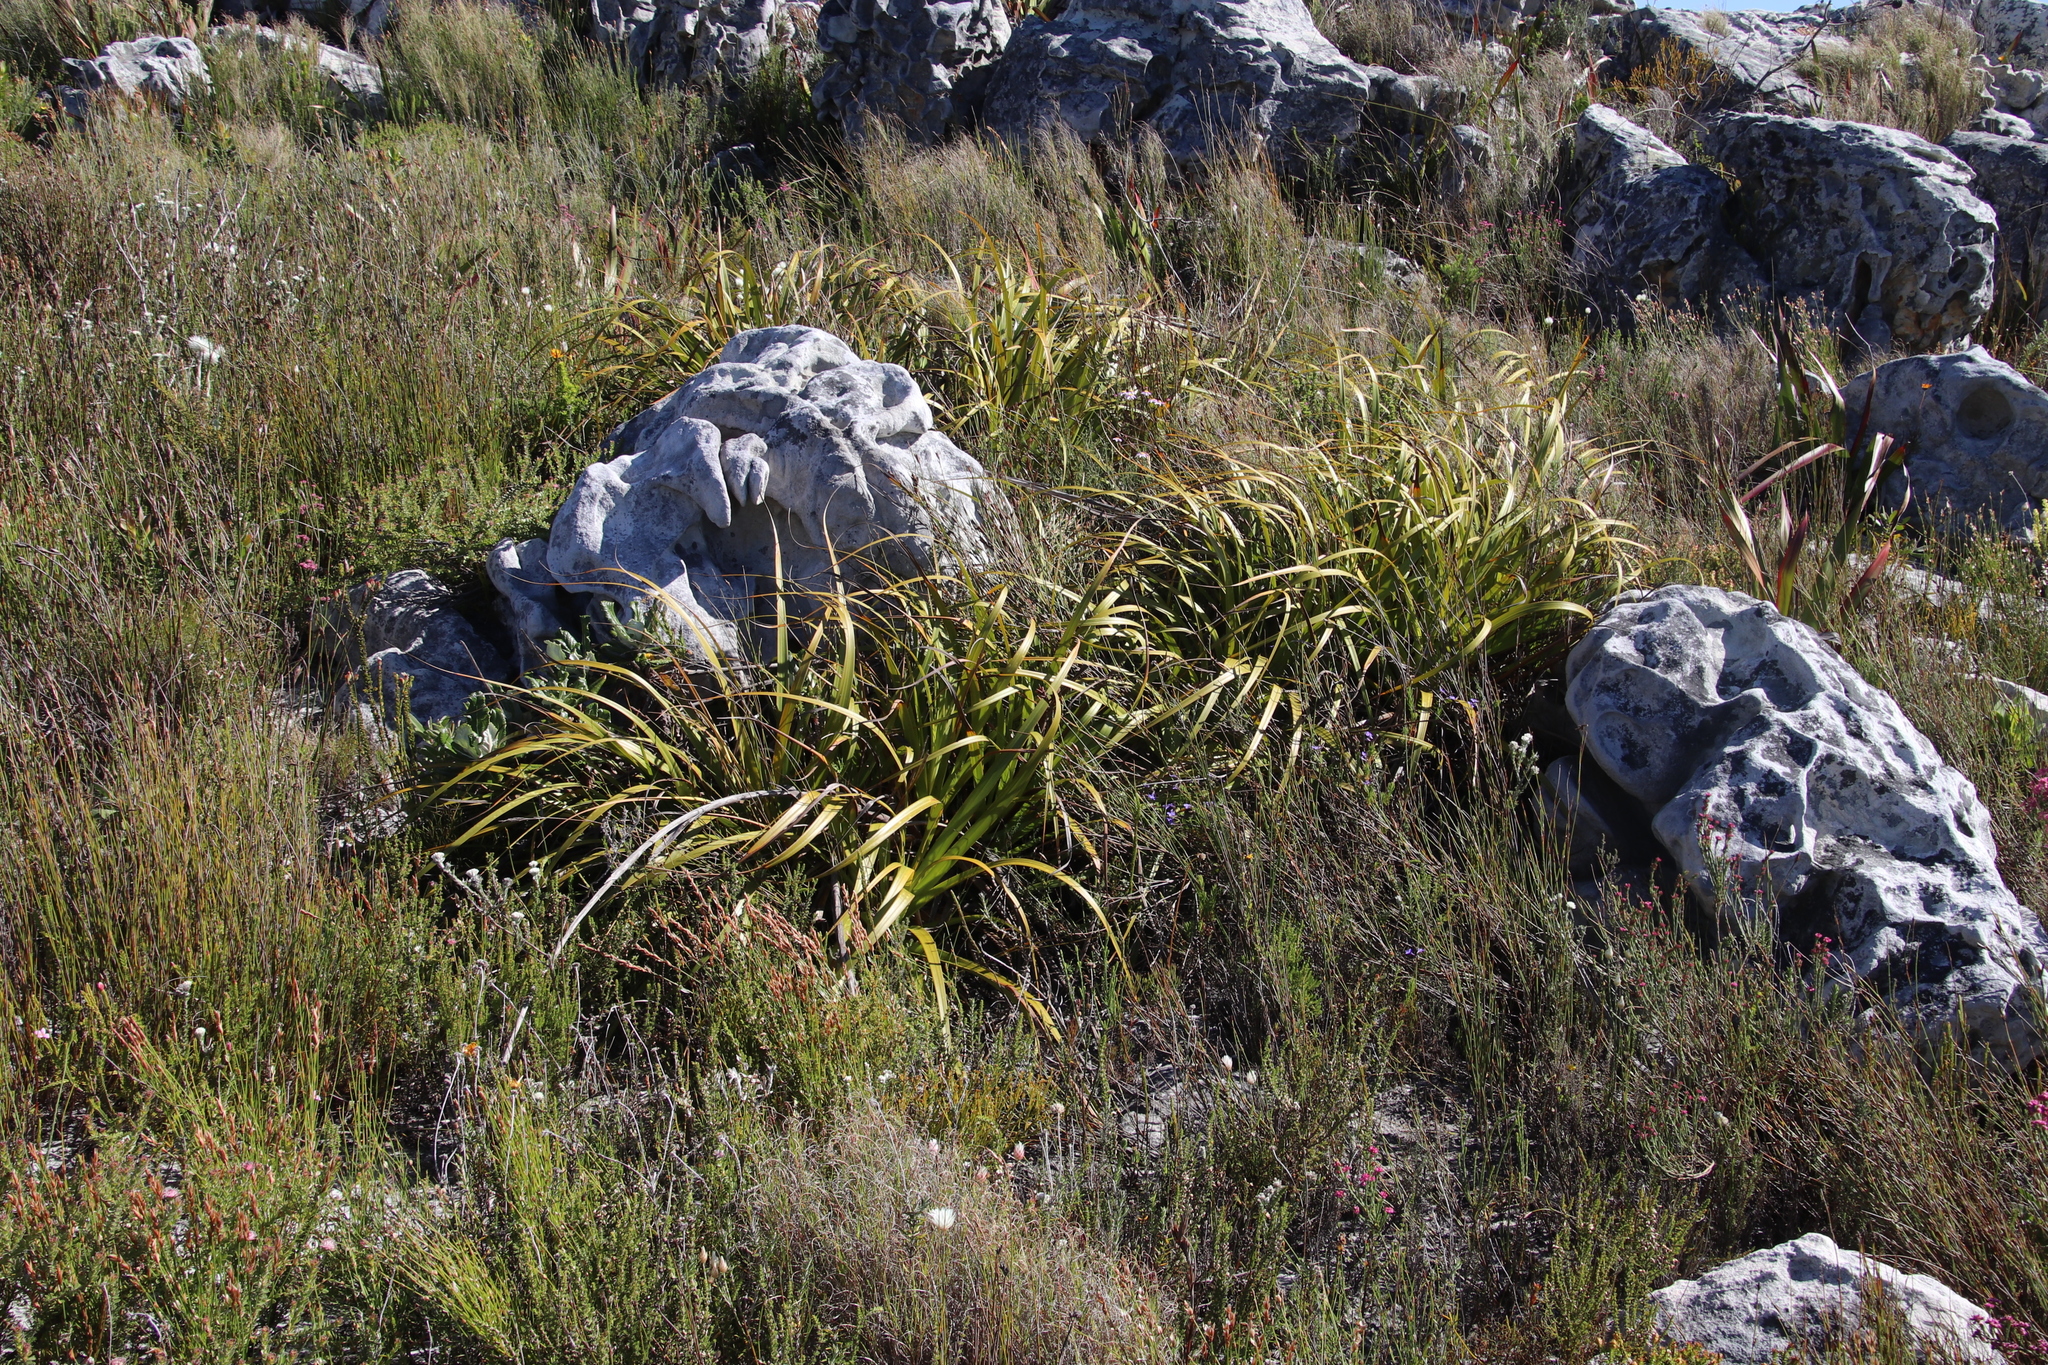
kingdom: Plantae
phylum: Tracheophyta
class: Liliopsida
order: Poales
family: Cyperaceae
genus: Tetraria
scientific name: Tetraria thermalis
